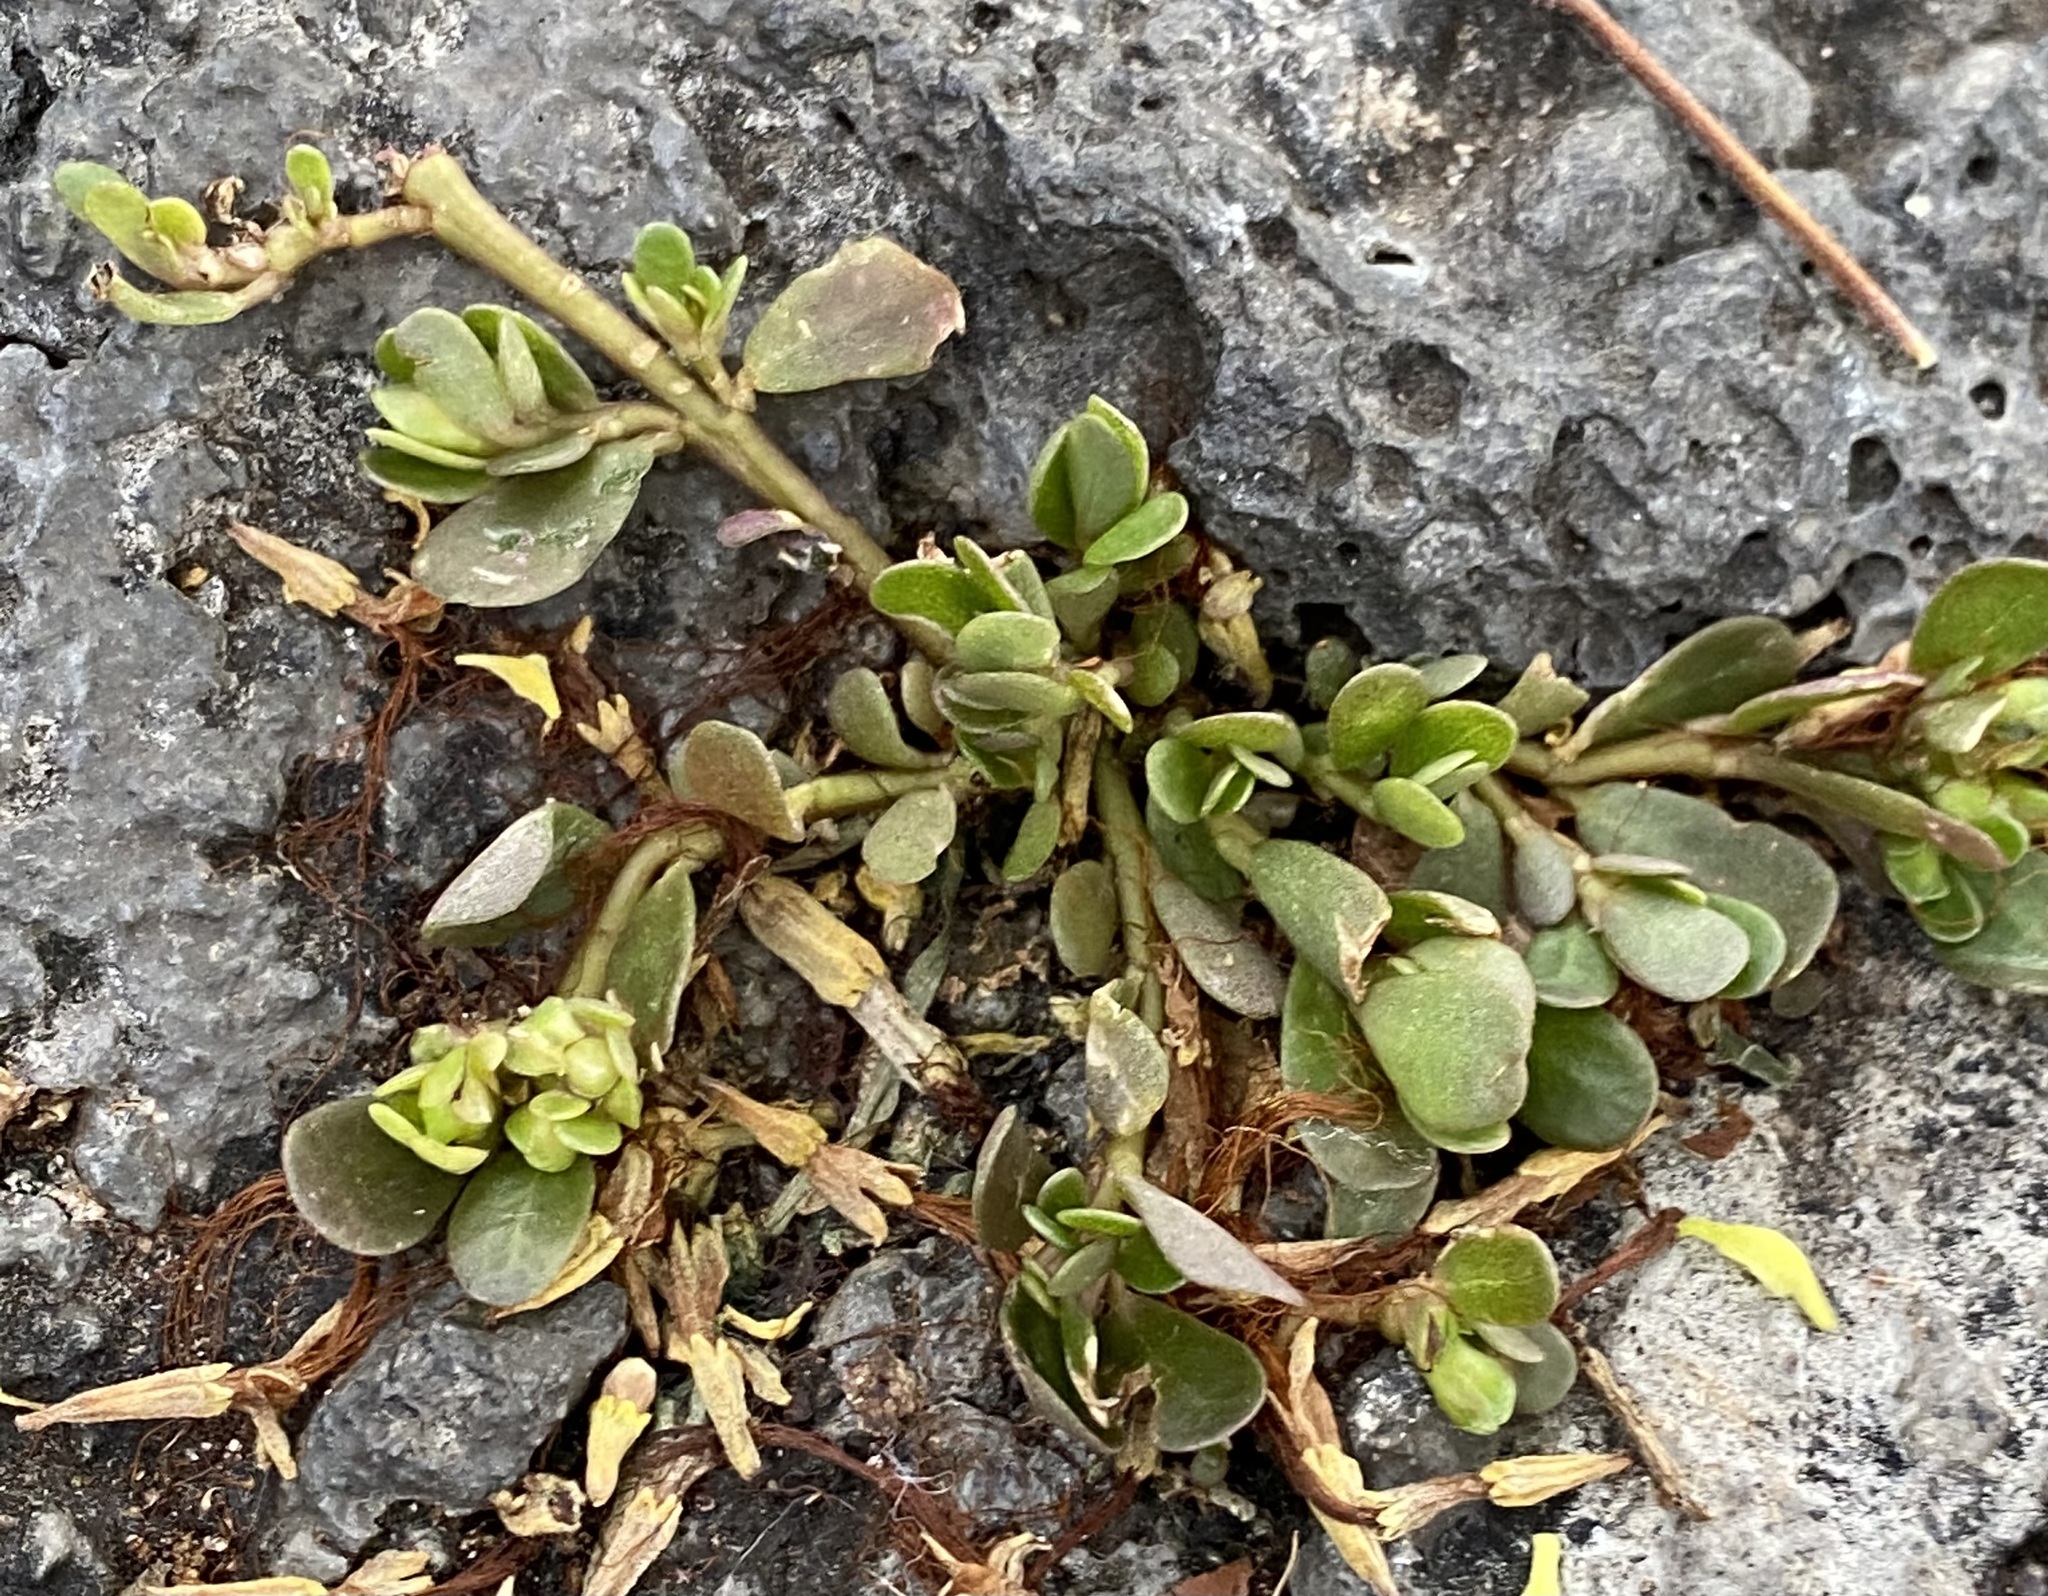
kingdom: Plantae
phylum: Tracheophyta
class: Magnoliopsida
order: Caryophyllales
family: Portulacaceae
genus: Portulaca
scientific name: Portulaca oleracea
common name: Common purslane
